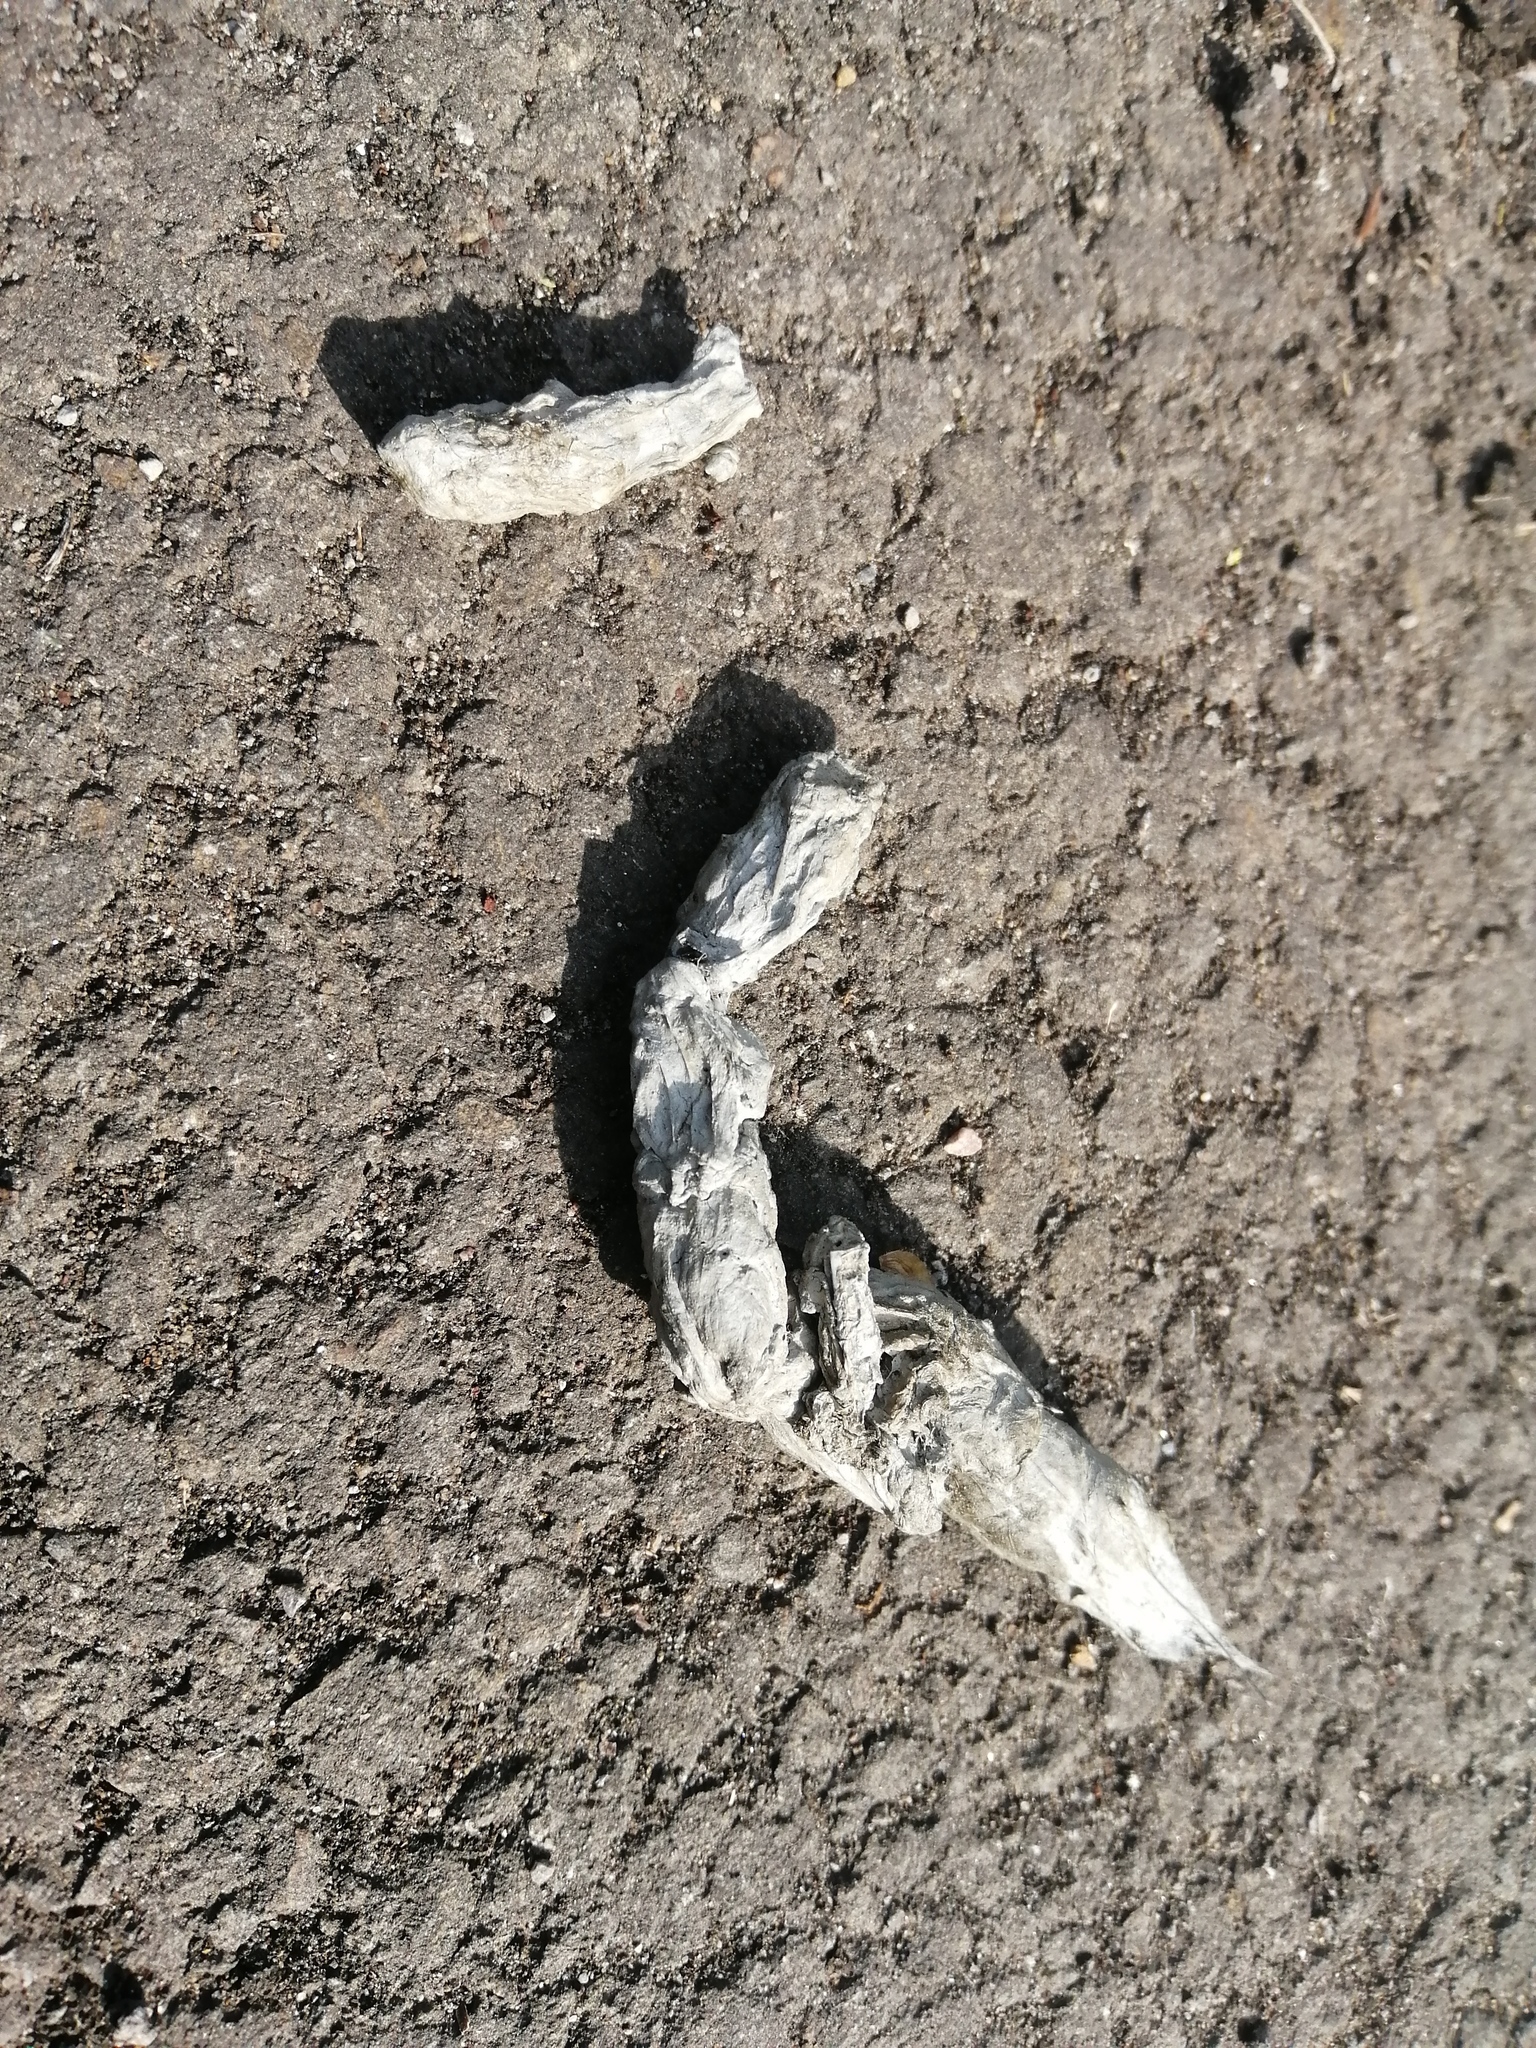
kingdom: Animalia
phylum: Chordata
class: Mammalia
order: Carnivora
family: Canidae
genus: Vulpes
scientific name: Vulpes vulpes
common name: Red fox
